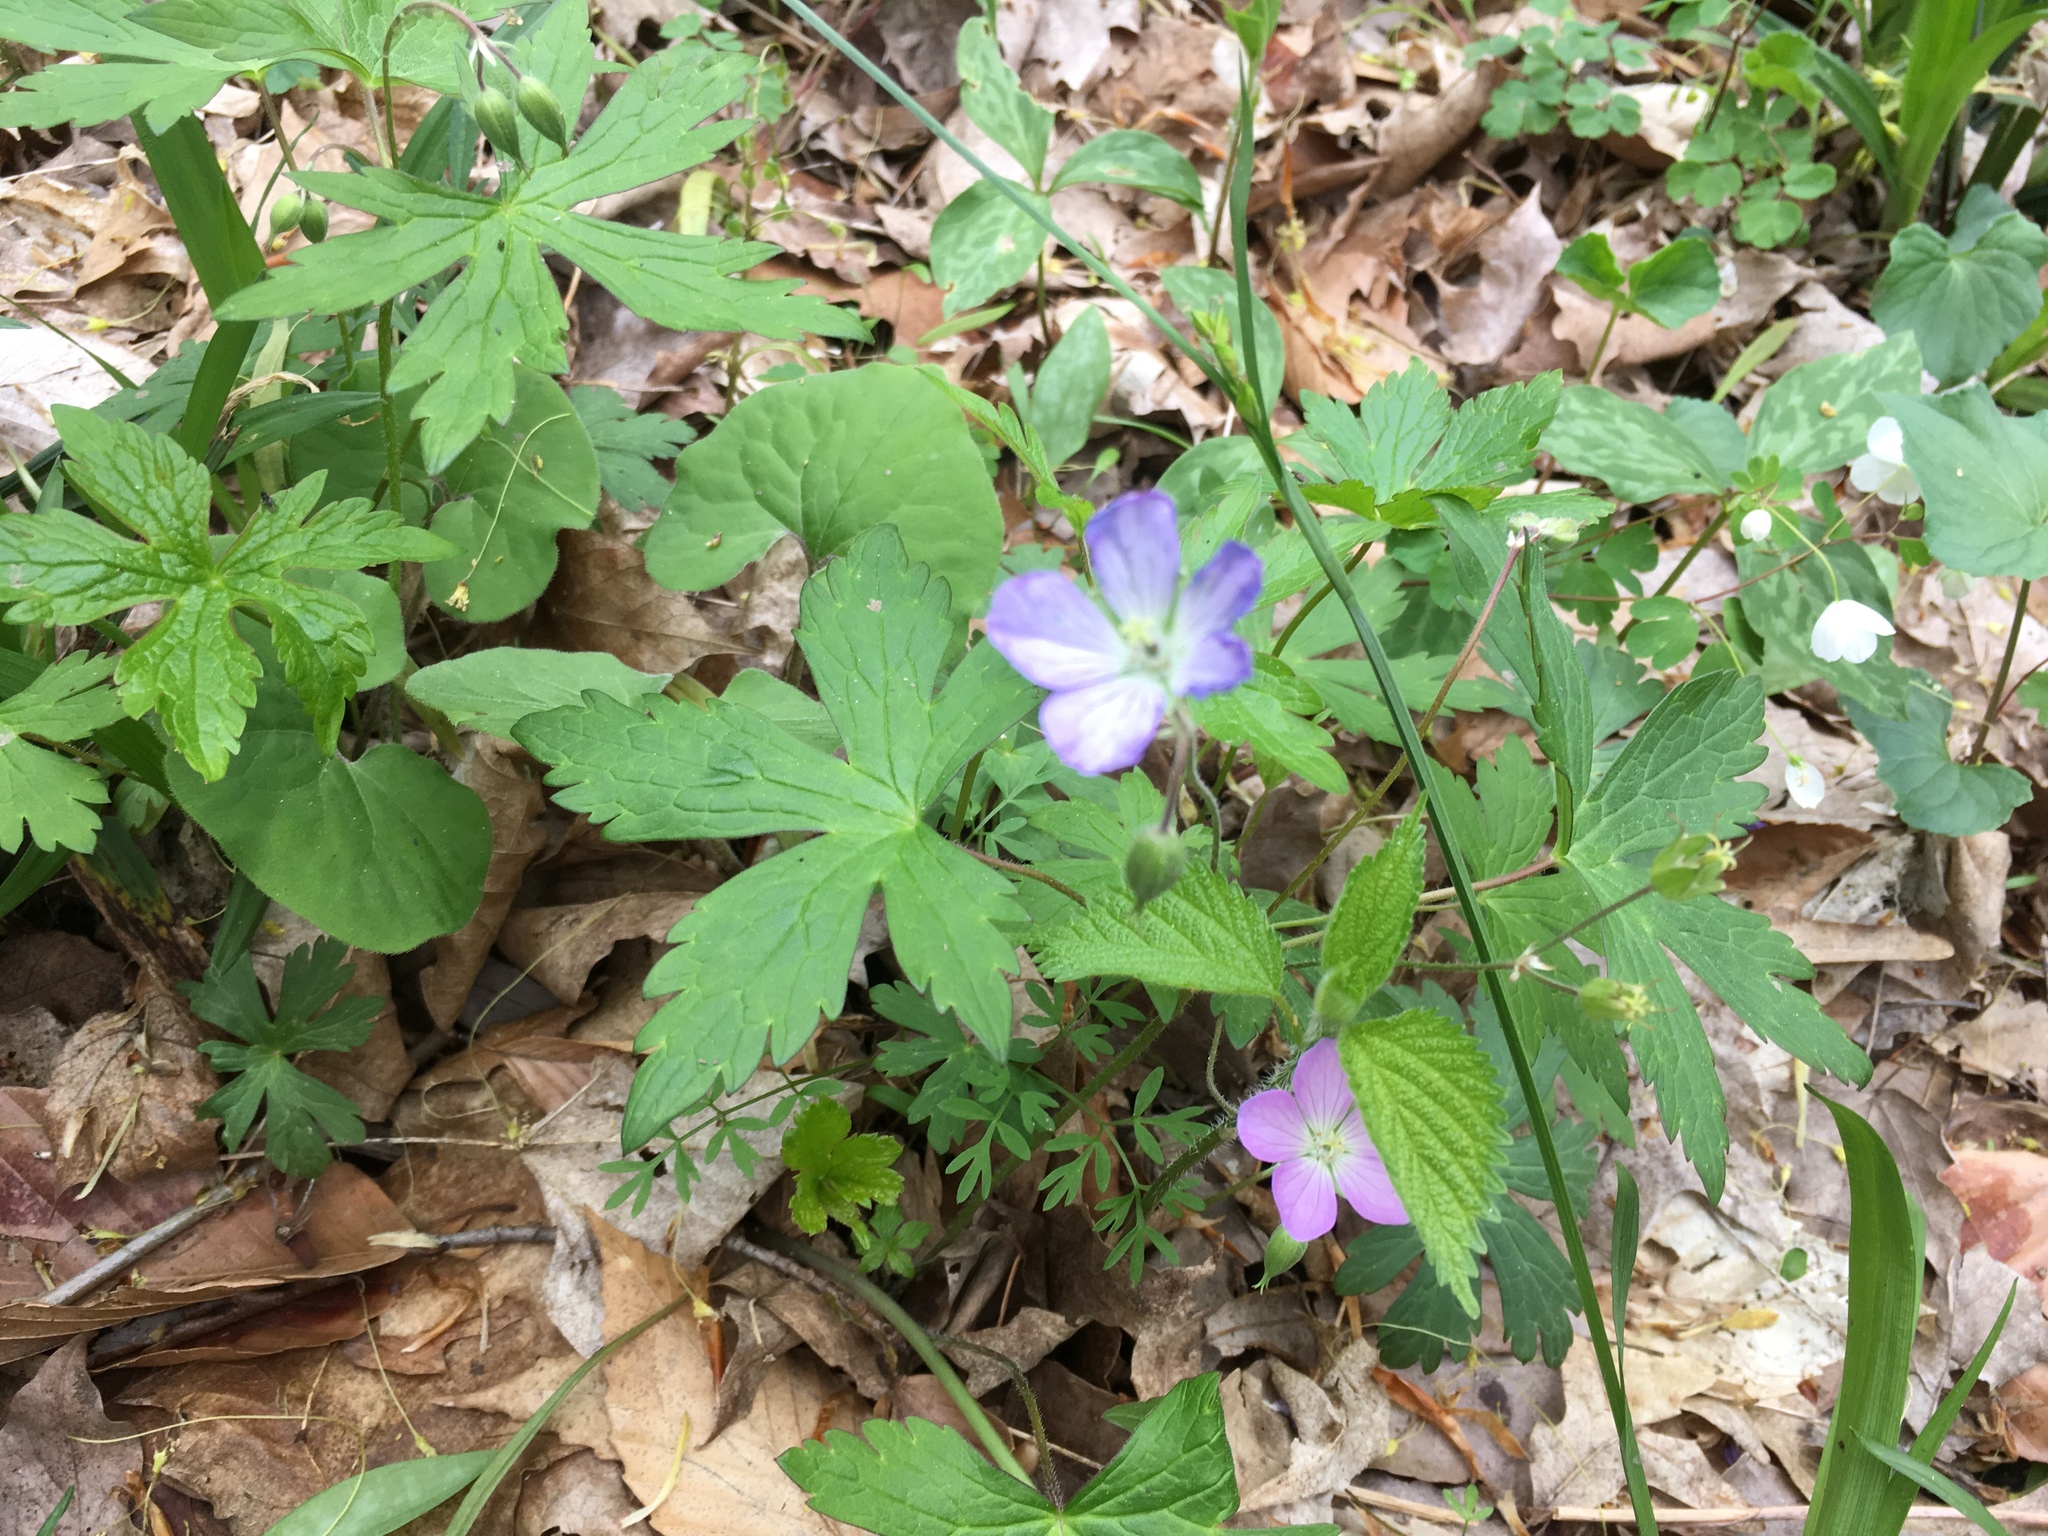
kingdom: Plantae
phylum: Tracheophyta
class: Magnoliopsida
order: Geraniales
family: Geraniaceae
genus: Geranium
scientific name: Geranium maculatum
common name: Spotted geranium
